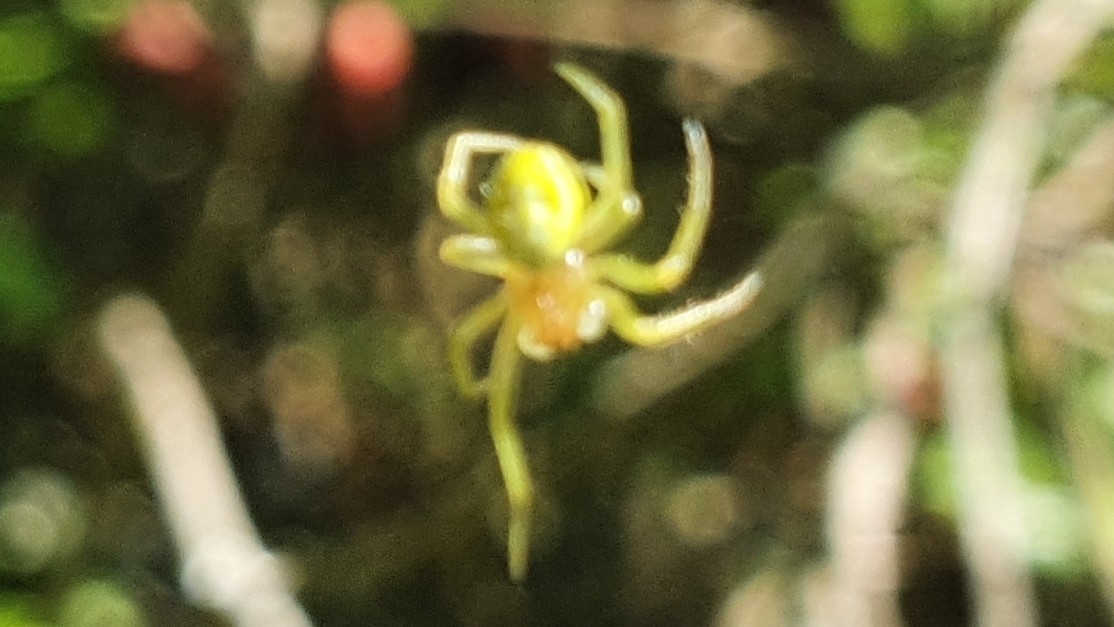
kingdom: Animalia
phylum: Arthropoda
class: Arachnida
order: Araneae
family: Araneidae
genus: Araniella
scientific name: Araniella
